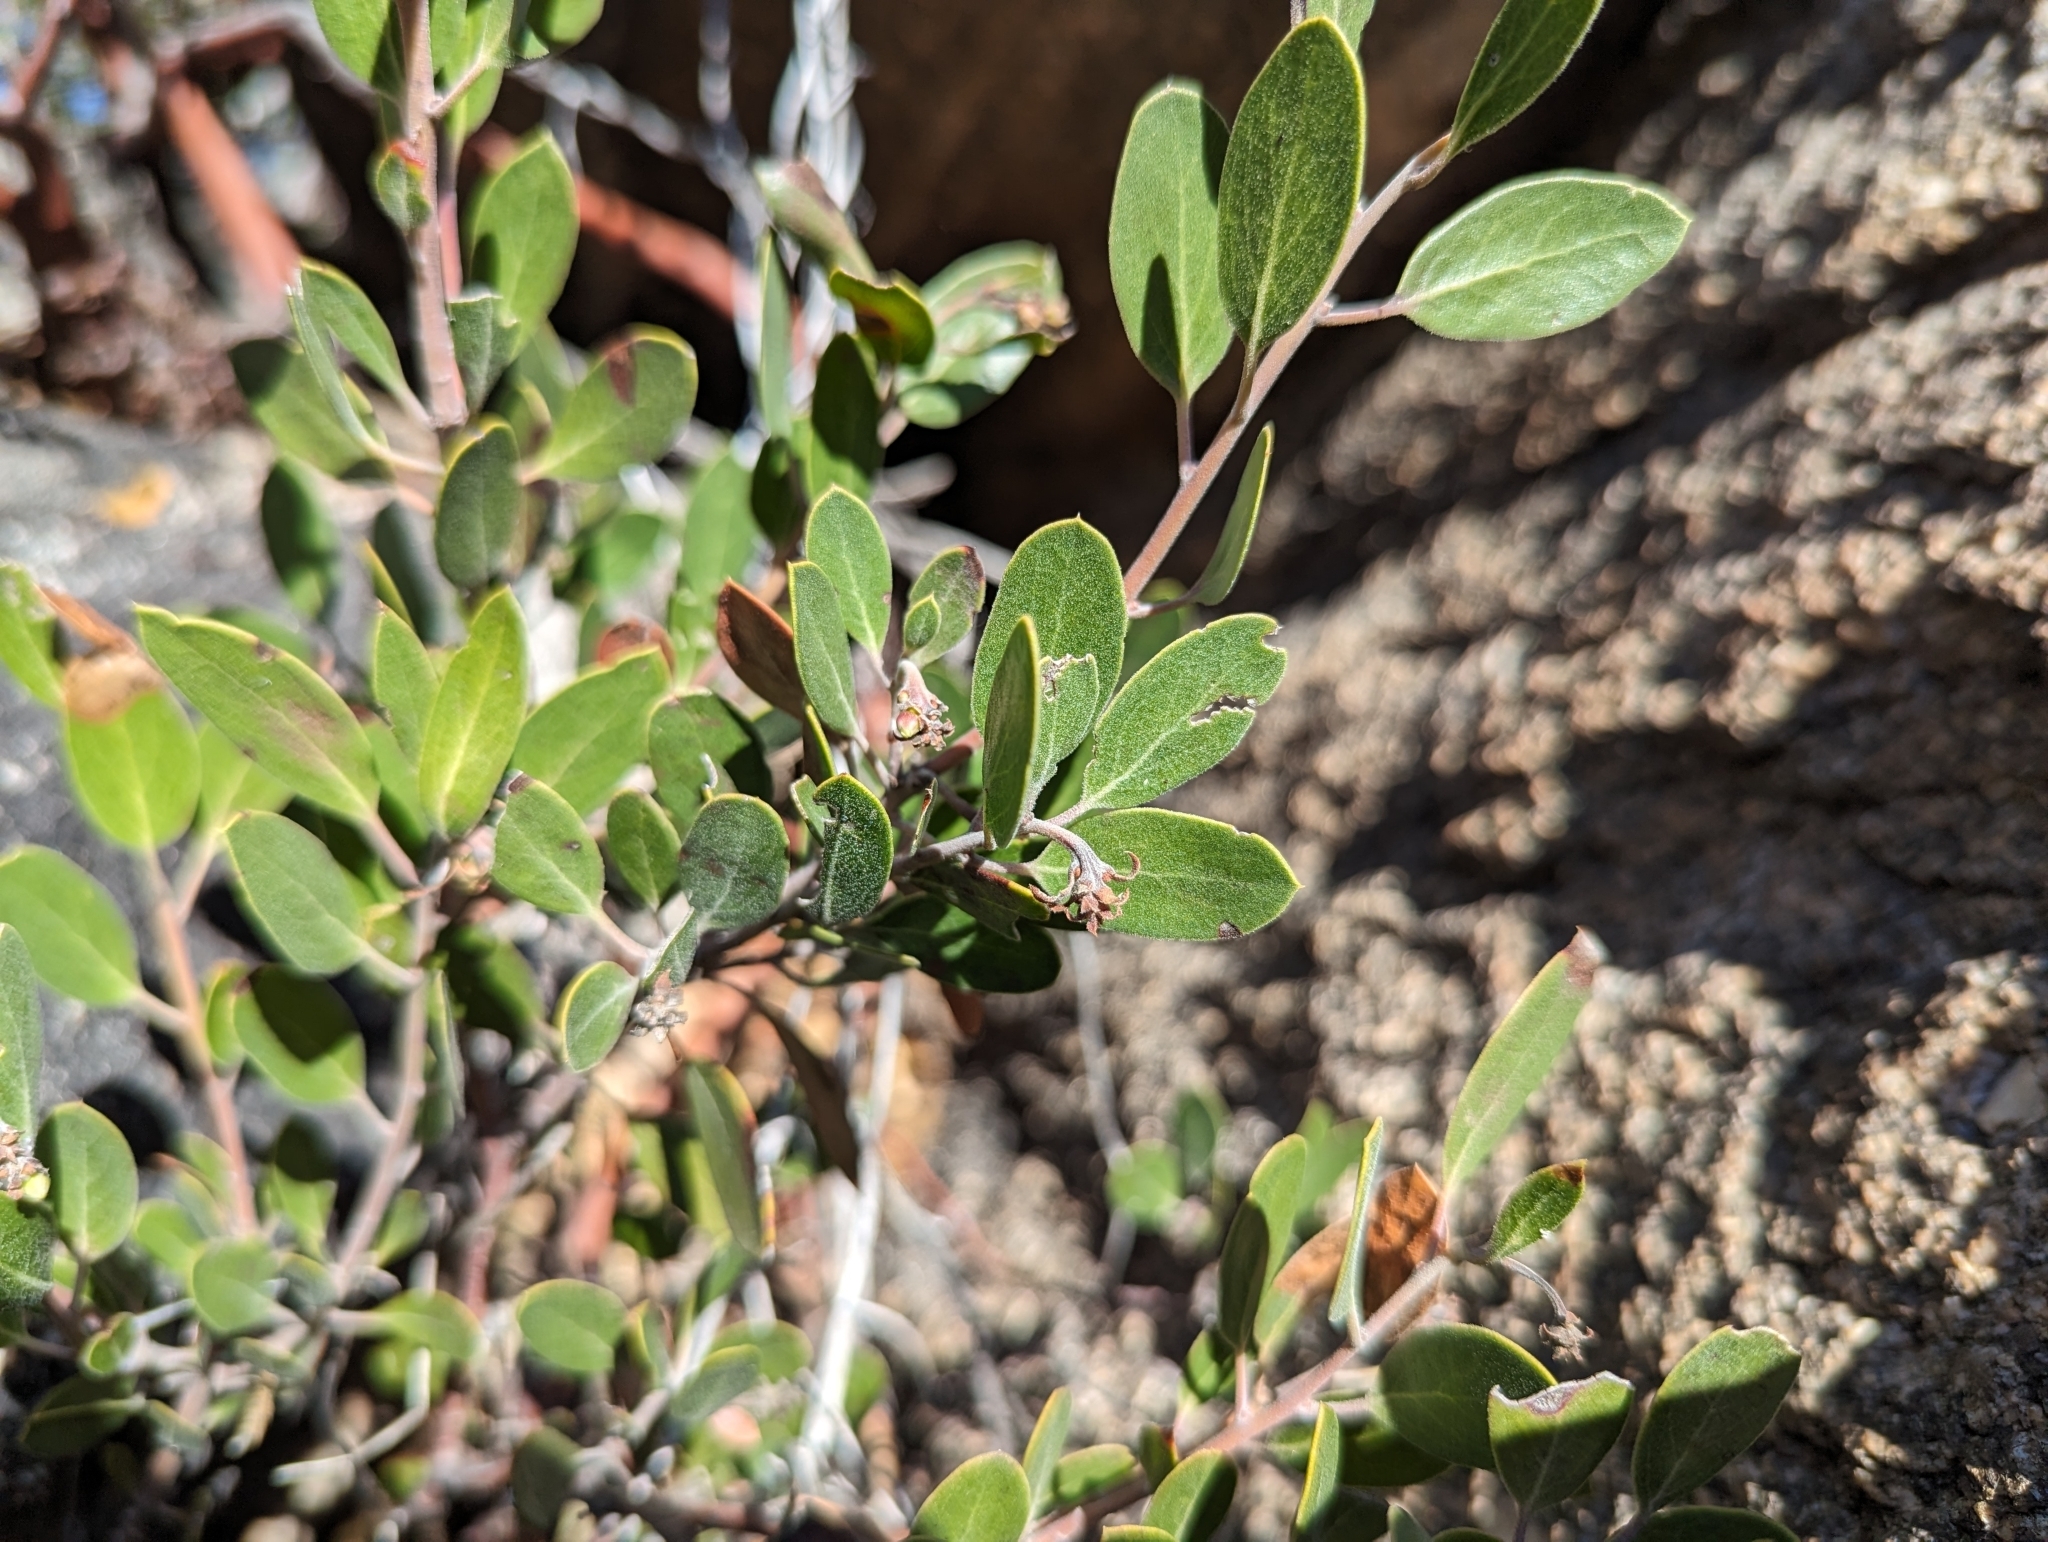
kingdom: Plantae
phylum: Tracheophyta
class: Magnoliopsida
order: Ericales
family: Ericaceae
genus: Arctostaphylos
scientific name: Arctostaphylos pungens
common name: Mexican manzanita
